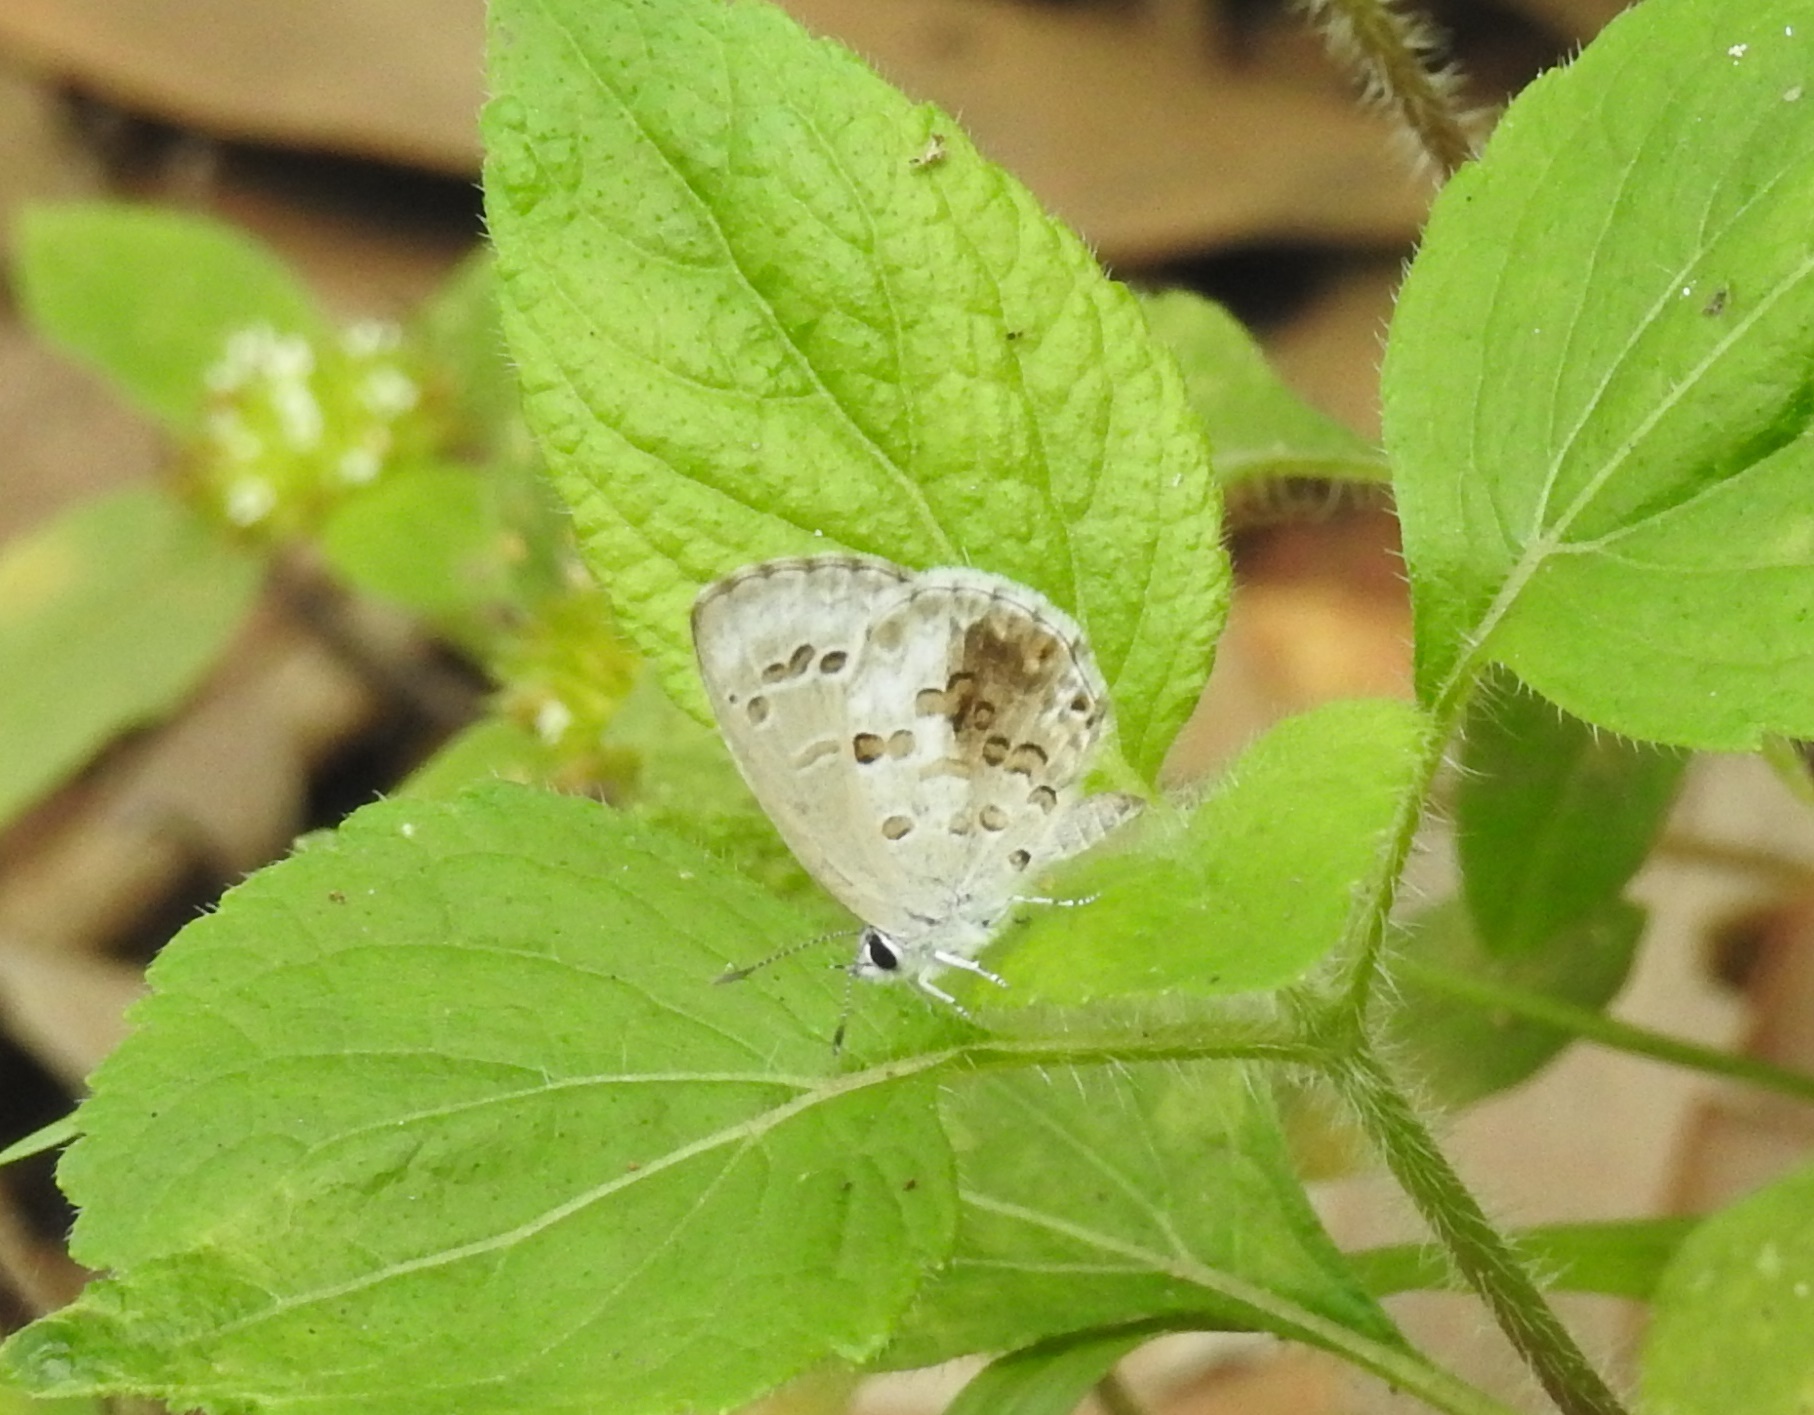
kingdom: Animalia
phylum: Arthropoda
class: Insecta
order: Lepidoptera
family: Lycaenidae
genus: Chilades
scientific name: Chilades laius
